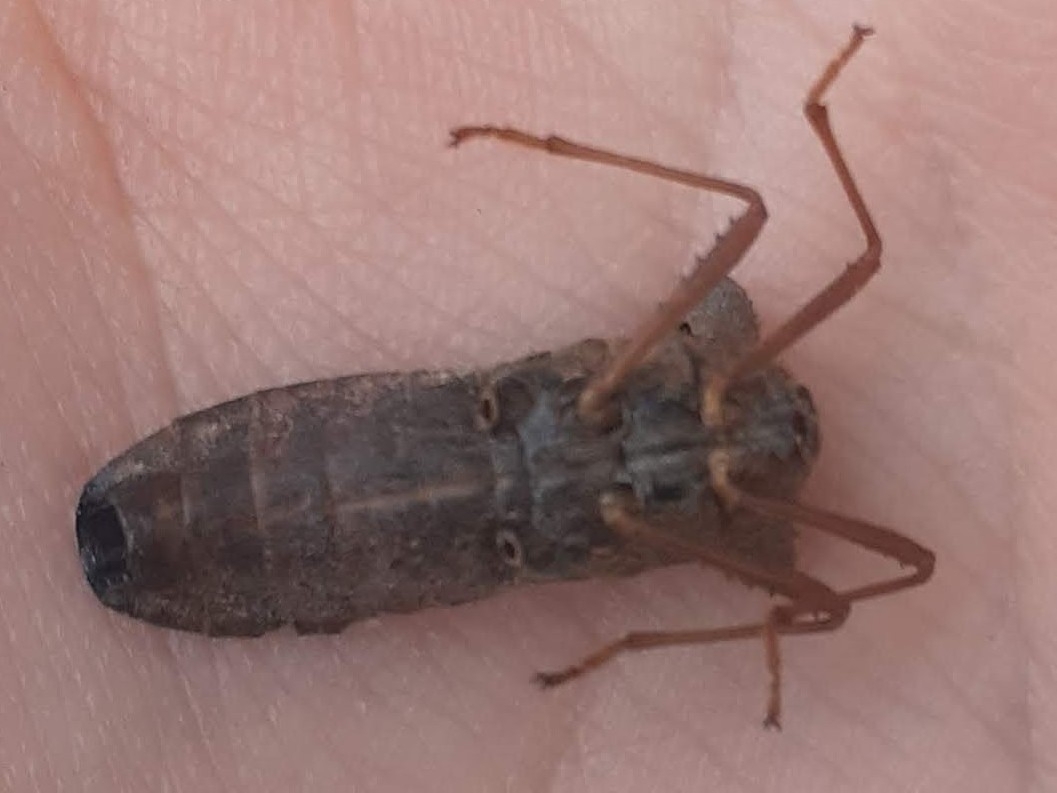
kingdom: Animalia
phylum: Arthropoda
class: Insecta
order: Hemiptera
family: Coreidae
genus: Leptoglossus
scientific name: Leptoglossus fulvicornis
